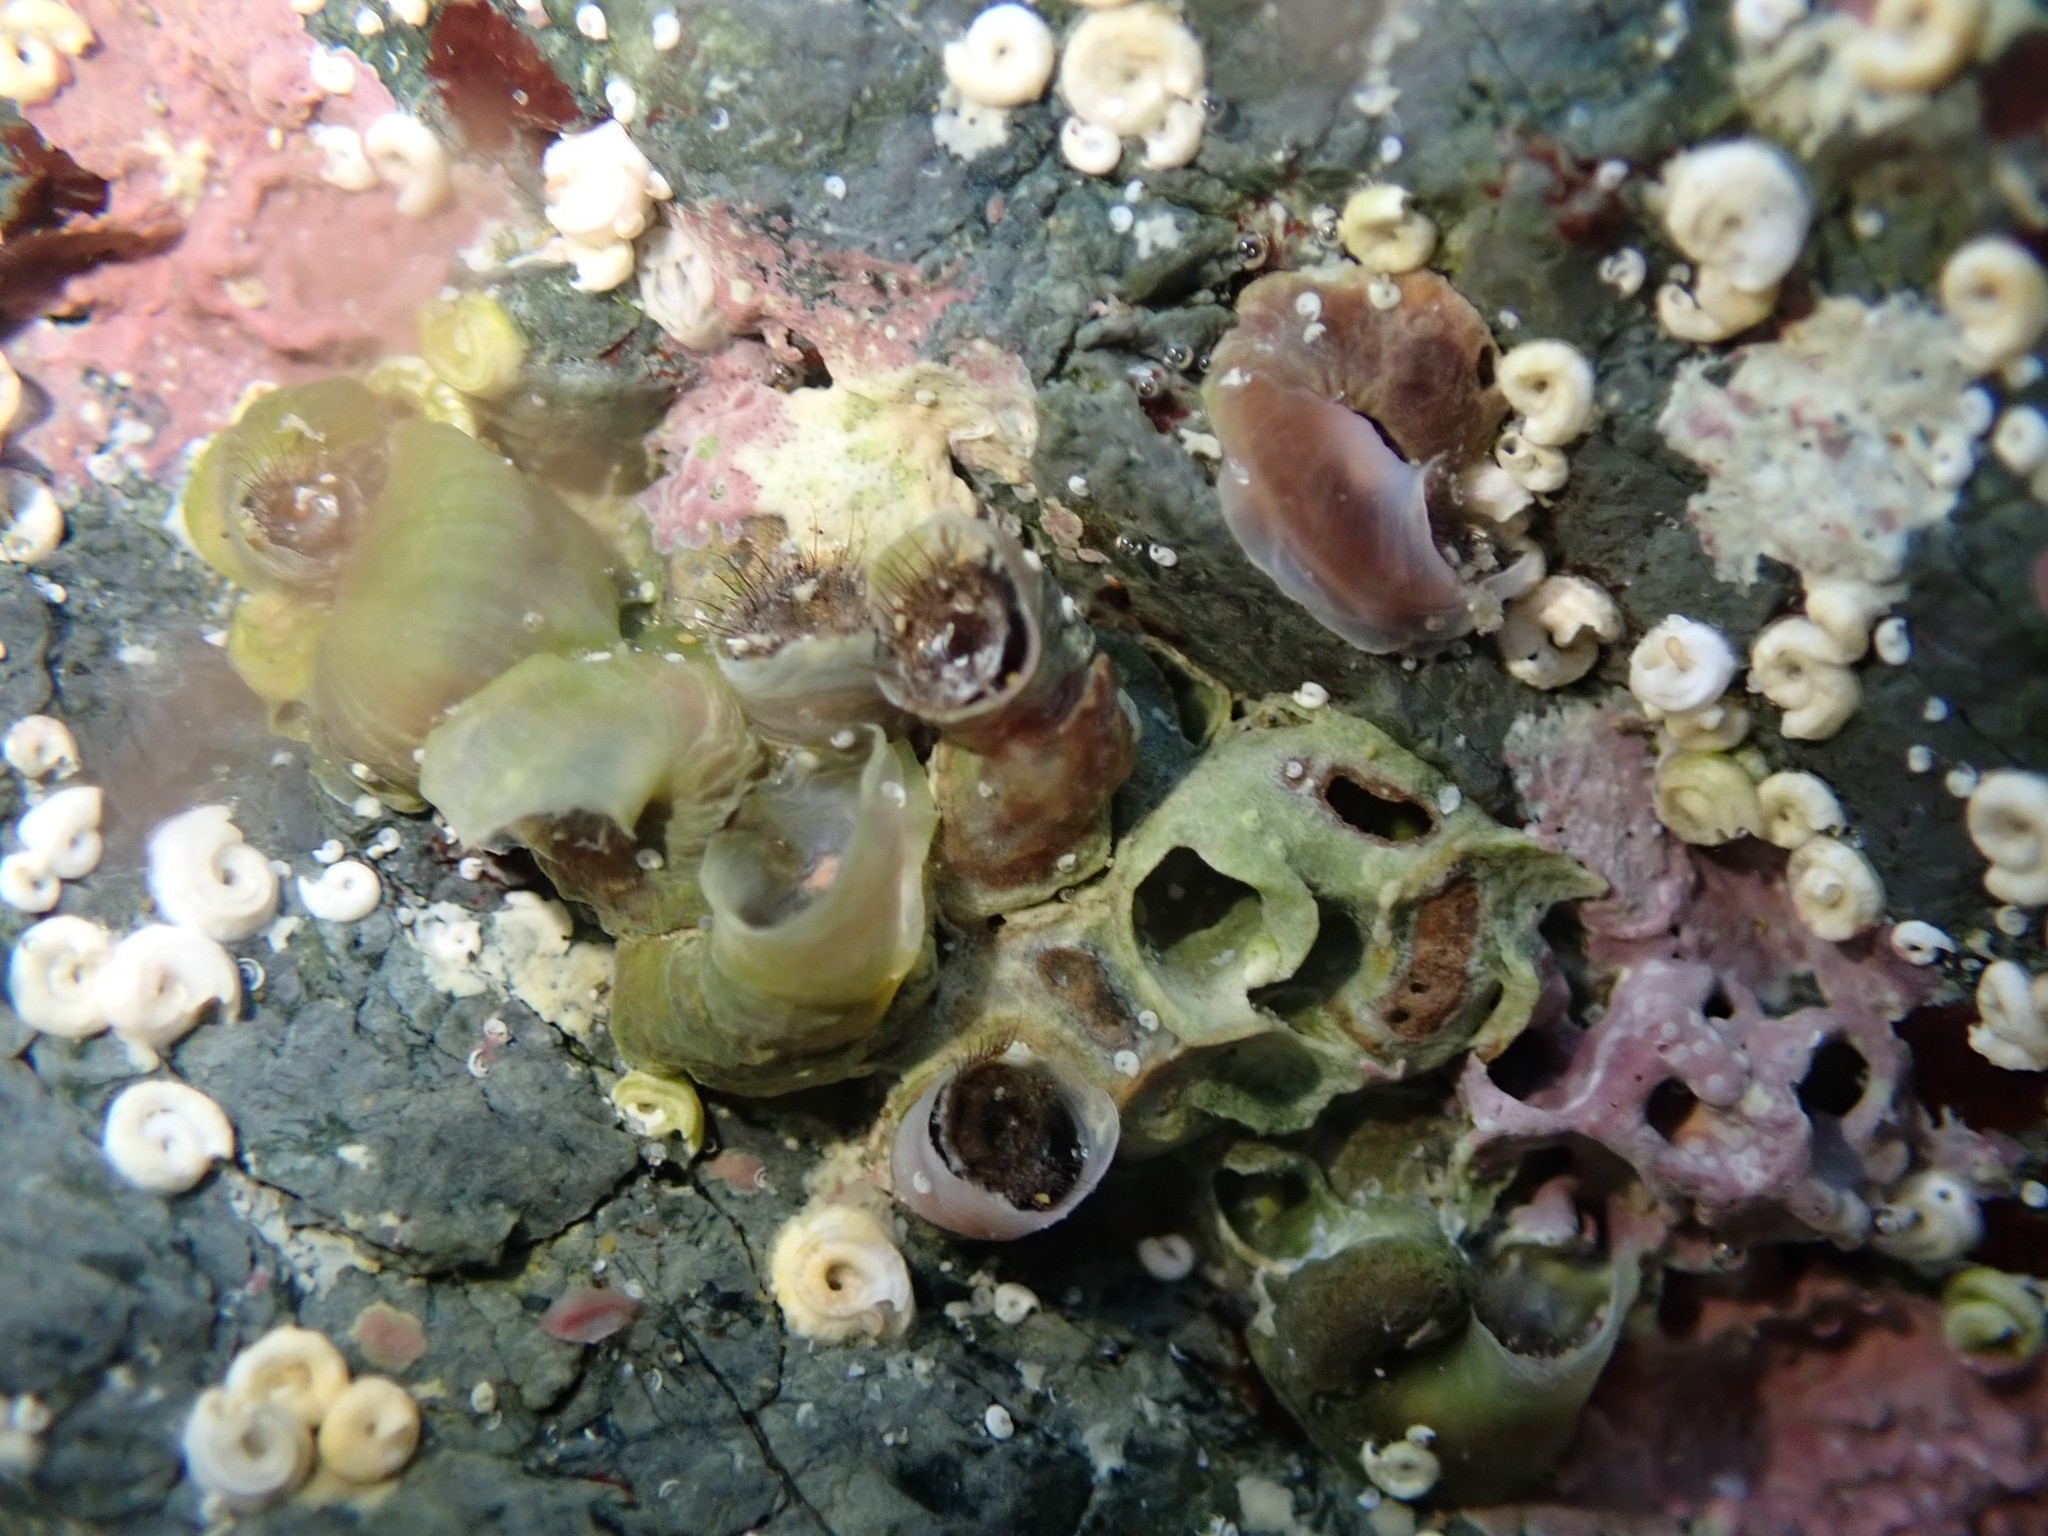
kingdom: Animalia
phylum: Mollusca
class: Gastropoda
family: Siliquariidae
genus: Stephopoma
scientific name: Stephopoma roseum
